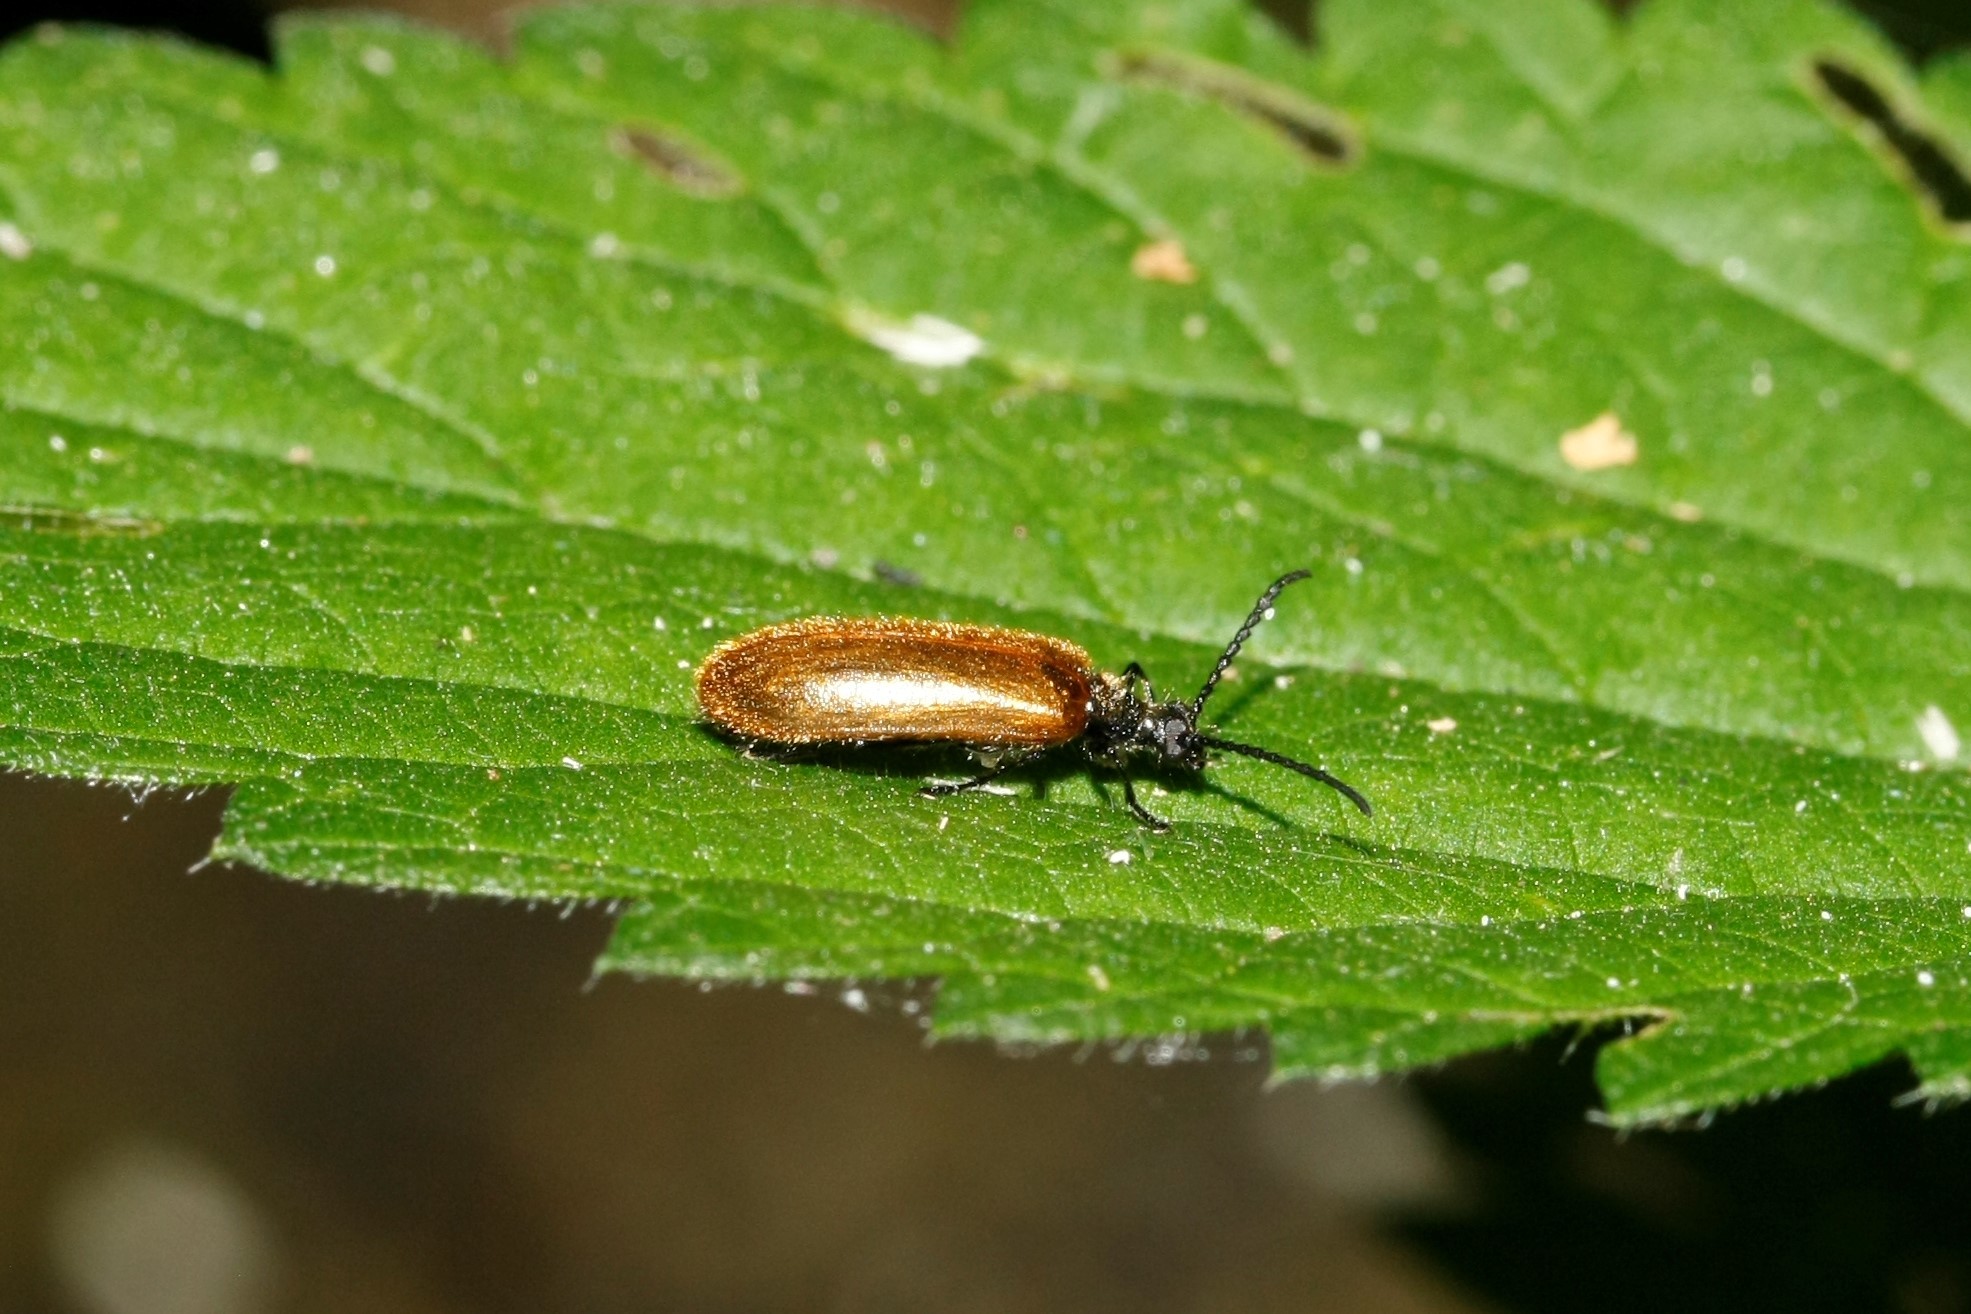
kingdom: Animalia
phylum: Arthropoda
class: Insecta
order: Coleoptera
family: Tenebrionidae
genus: Lagria
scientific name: Lagria hirta
